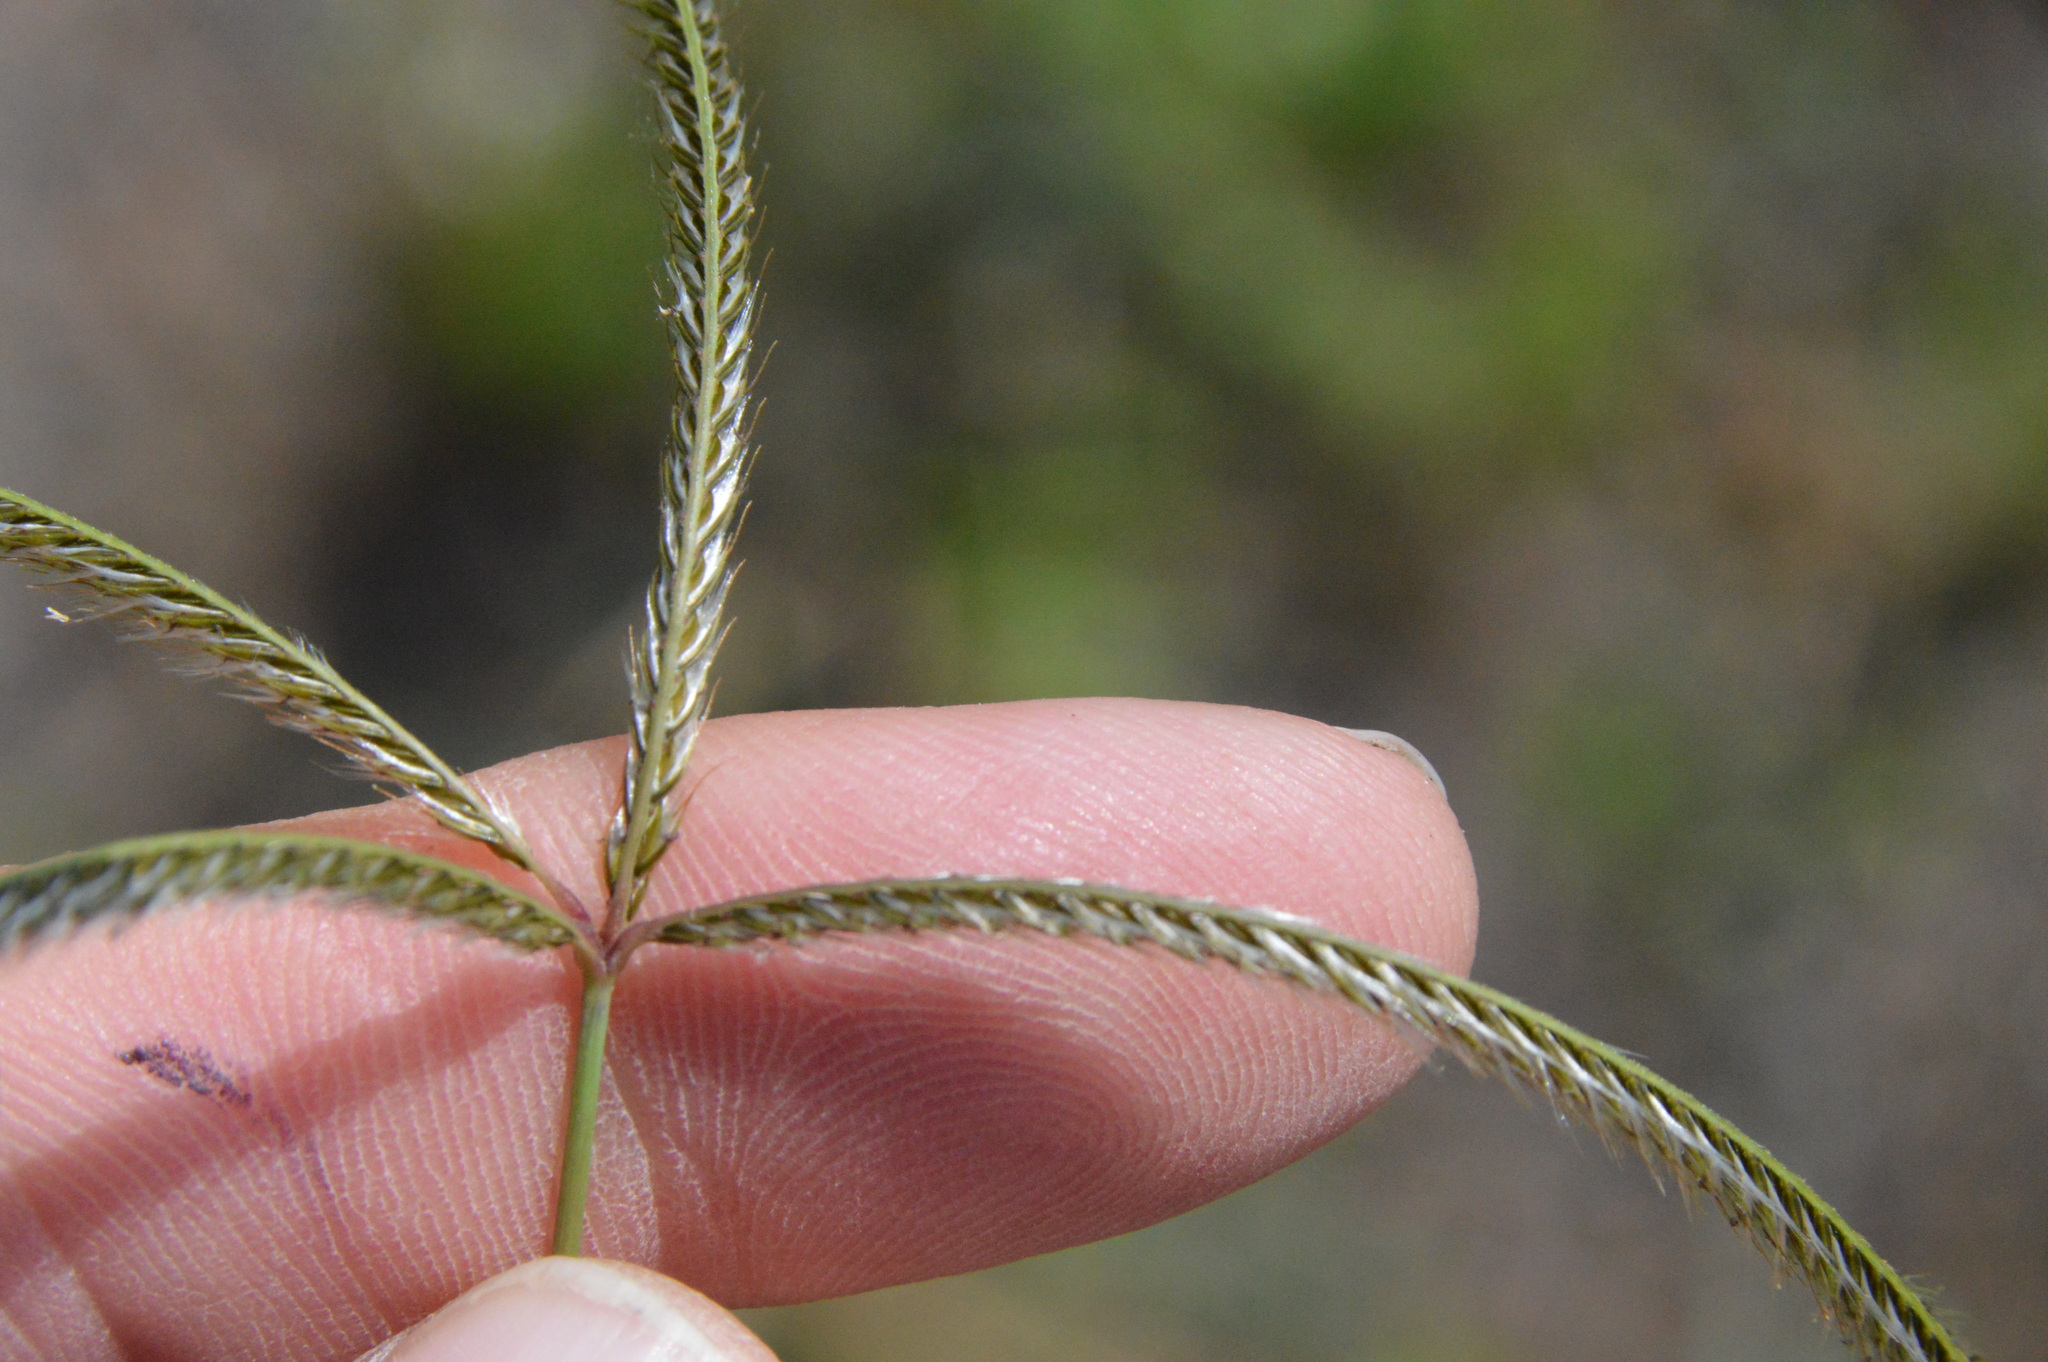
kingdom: Plantae
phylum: Tracheophyta
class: Liliopsida
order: Poales
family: Poaceae
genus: Stapfochloa
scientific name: Stapfochloa canterae
